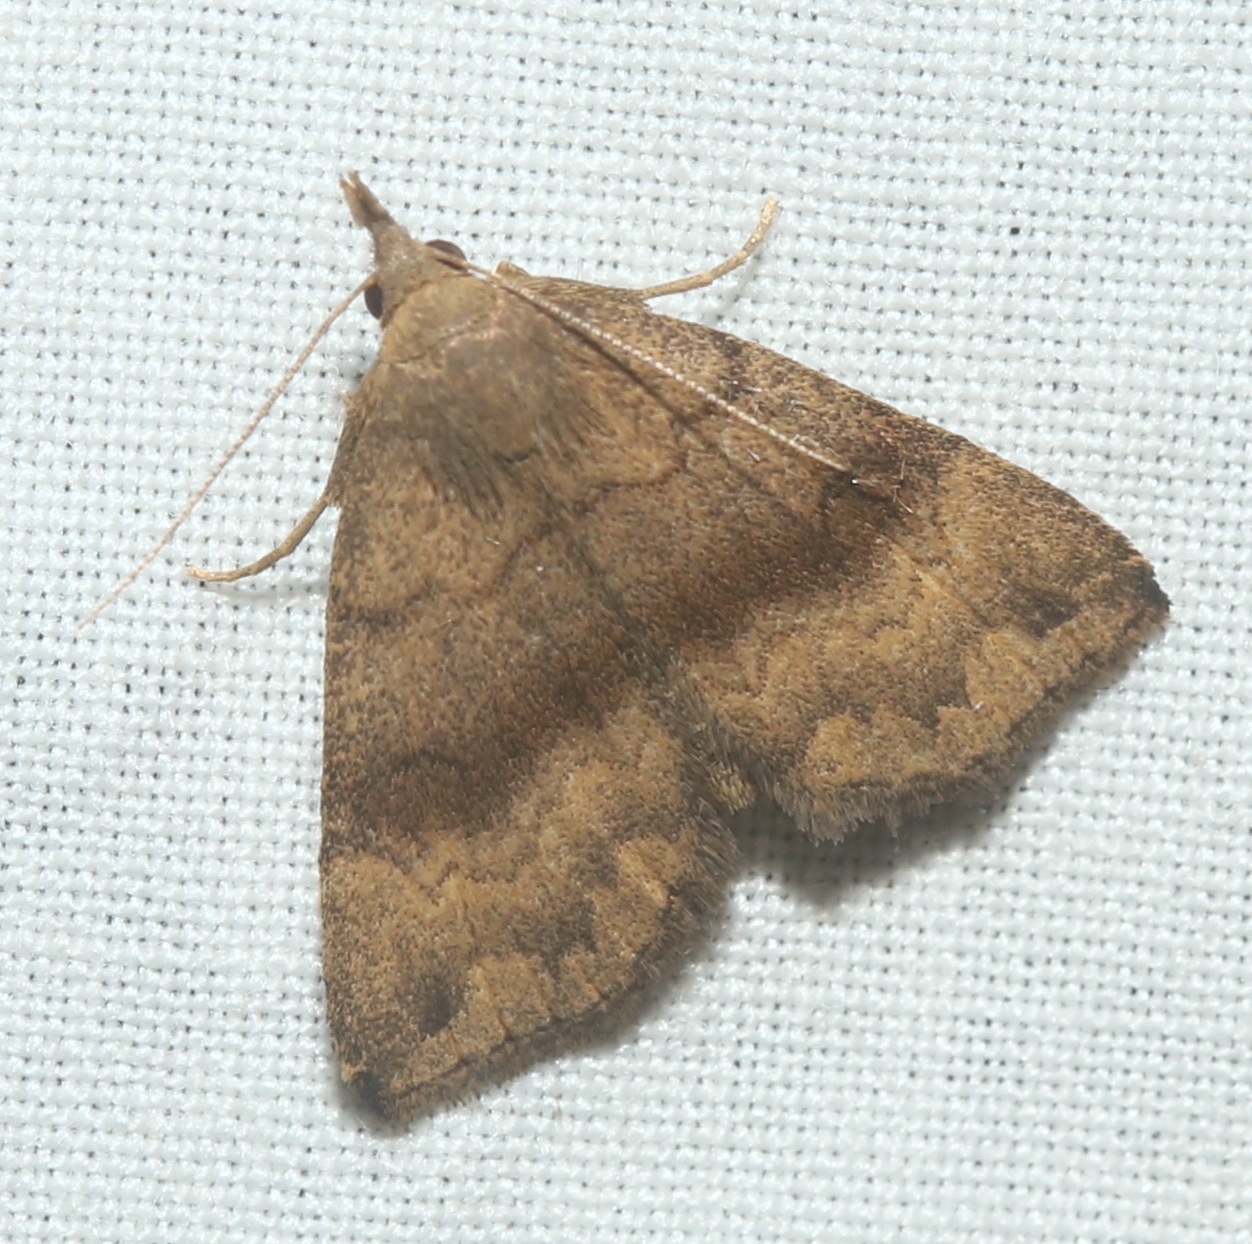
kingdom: Animalia
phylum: Arthropoda
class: Insecta
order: Lepidoptera
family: Erebidae
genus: Phalaenostola
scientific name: Phalaenostola eumelusalis
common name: Dark phalaenostola moth
